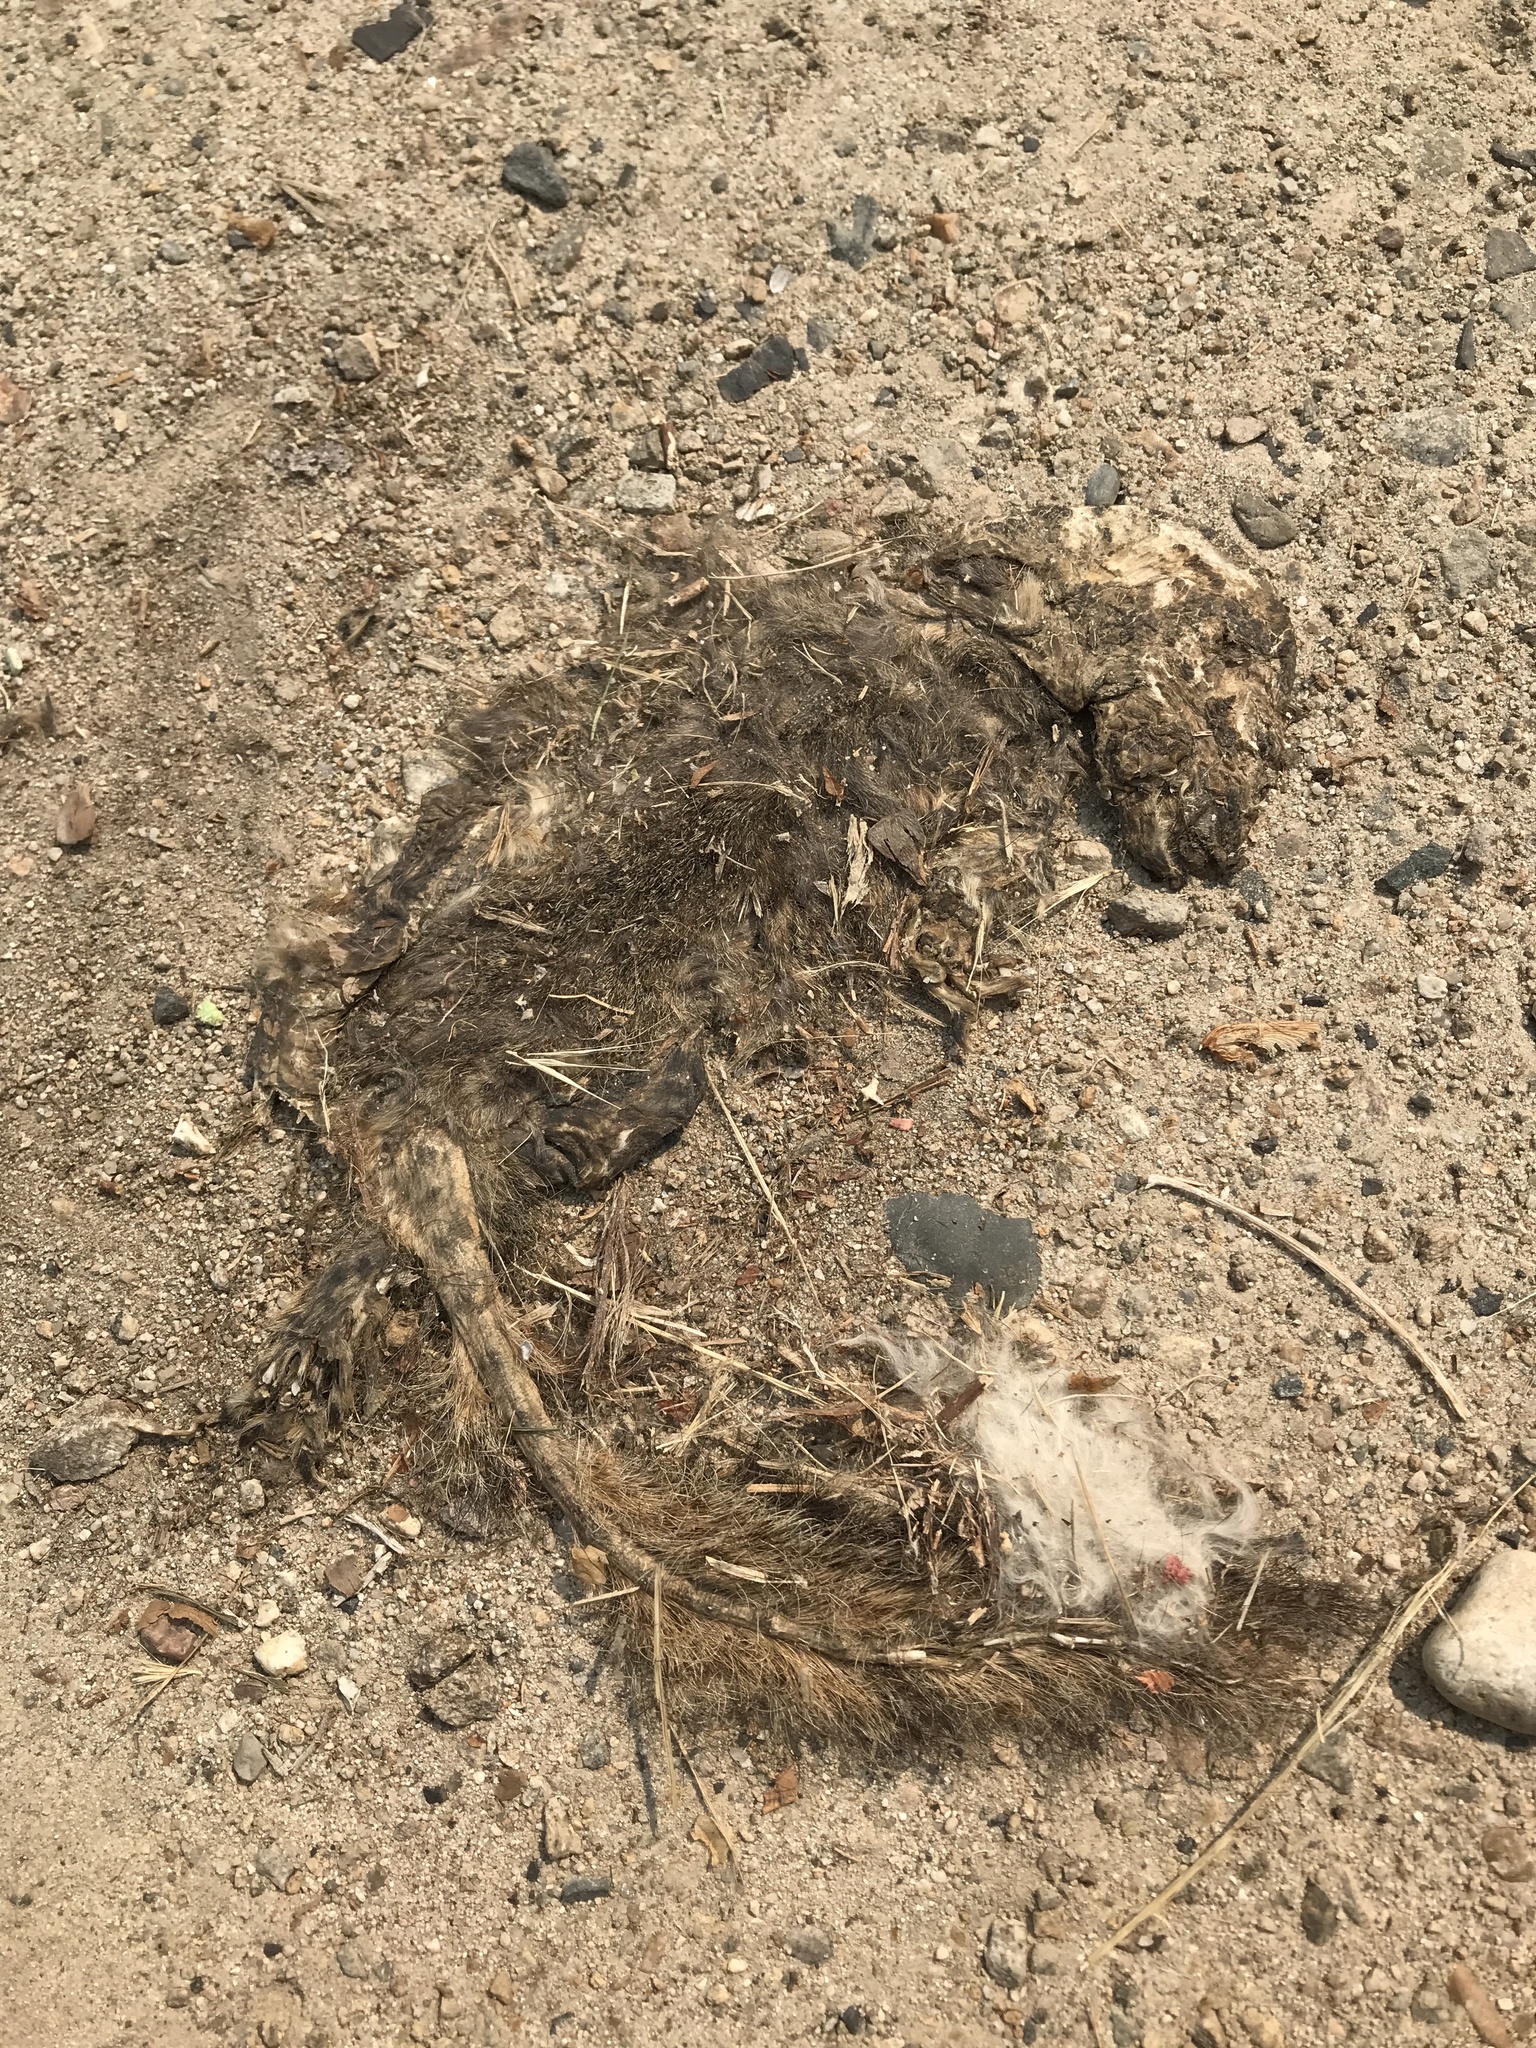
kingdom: Animalia
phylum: Chordata
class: Mammalia
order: Rodentia
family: Sciuridae
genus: Sciurus
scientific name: Sciurus niger
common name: Fox squirrel
